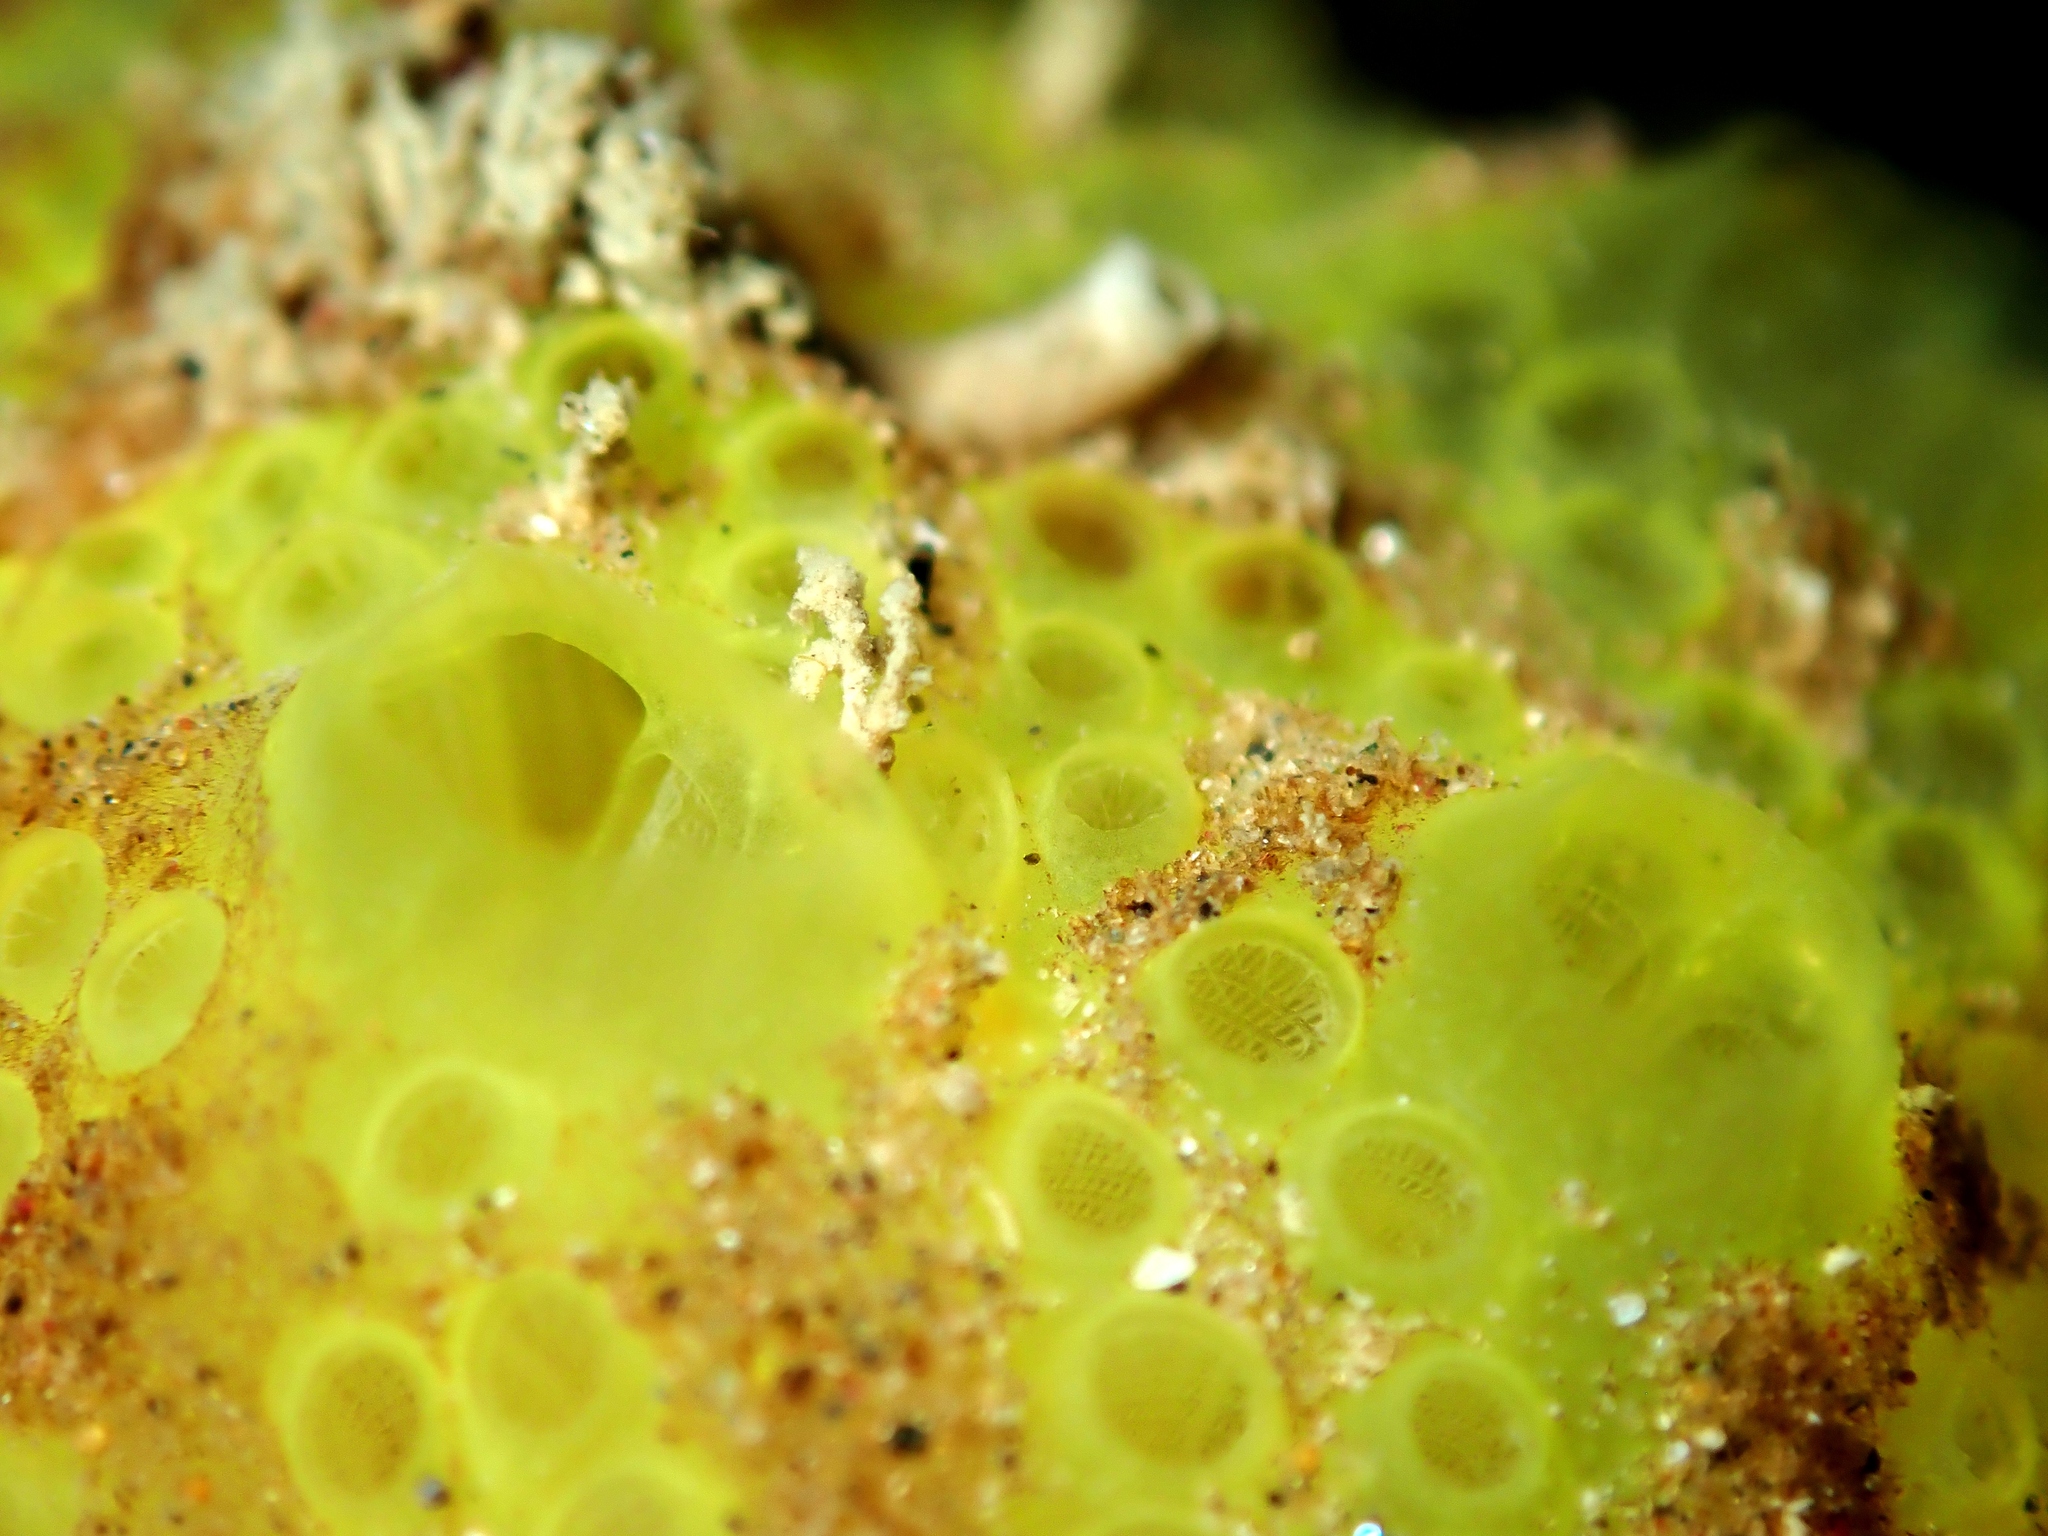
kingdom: Animalia
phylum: Chordata
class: Ascidiacea
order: Aplousobranchia
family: Polyclinidae
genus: Synoicum
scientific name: Synoicum occidentalis
